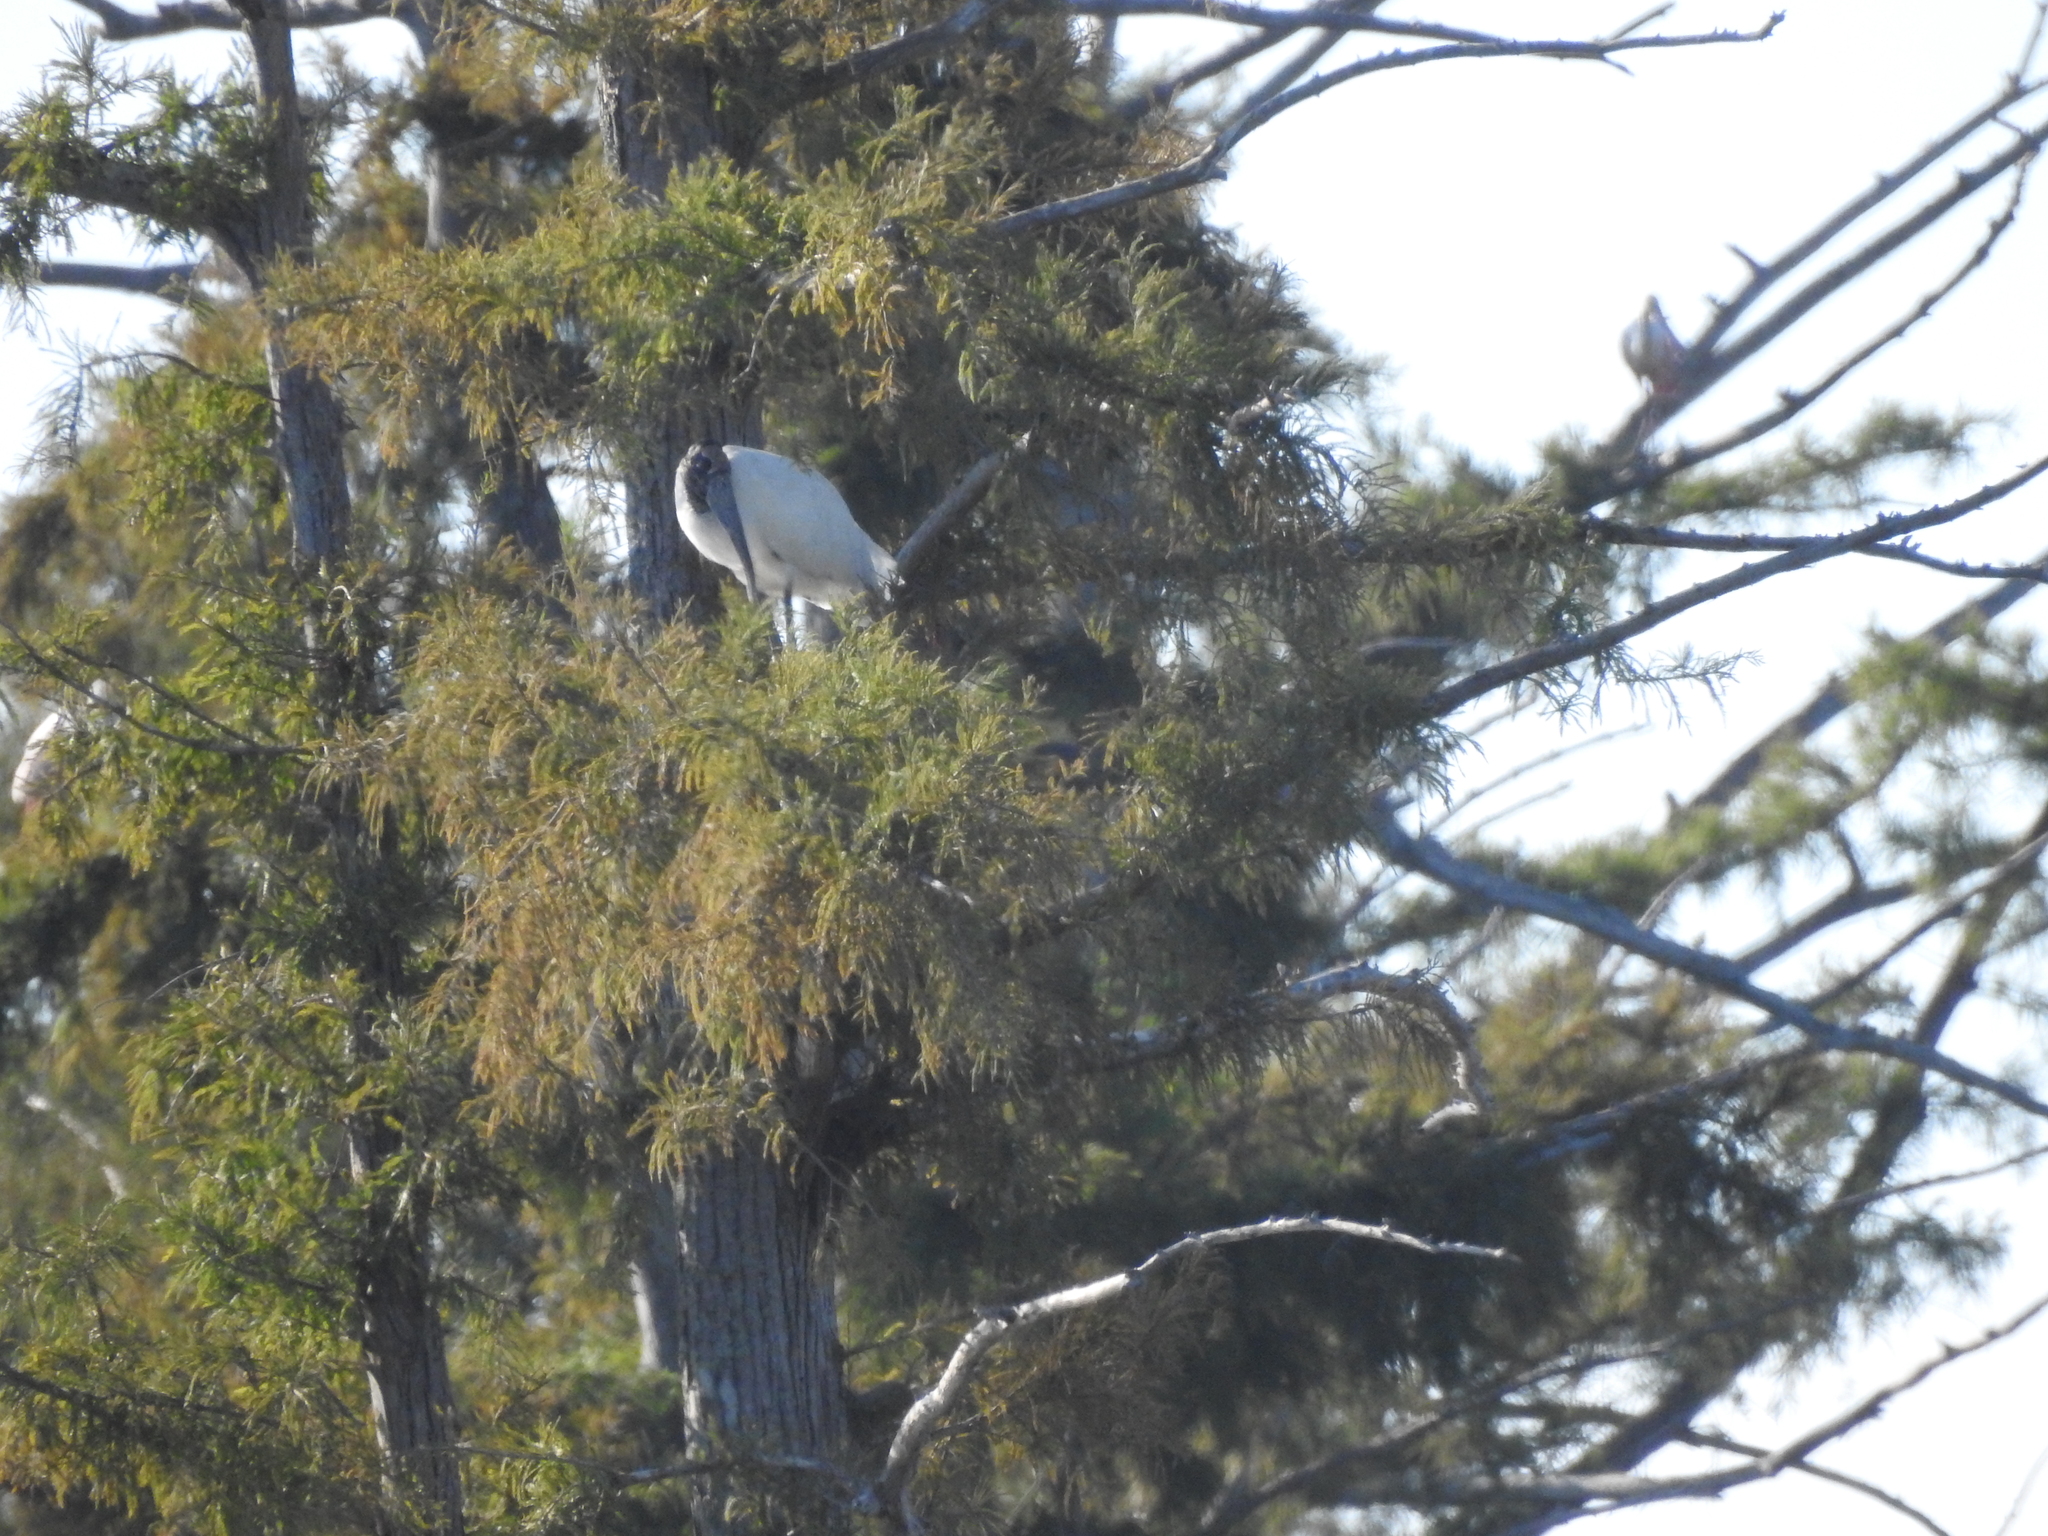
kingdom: Animalia
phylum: Chordata
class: Aves
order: Ciconiiformes
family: Ciconiidae
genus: Mycteria
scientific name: Mycteria americana
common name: Wood stork
